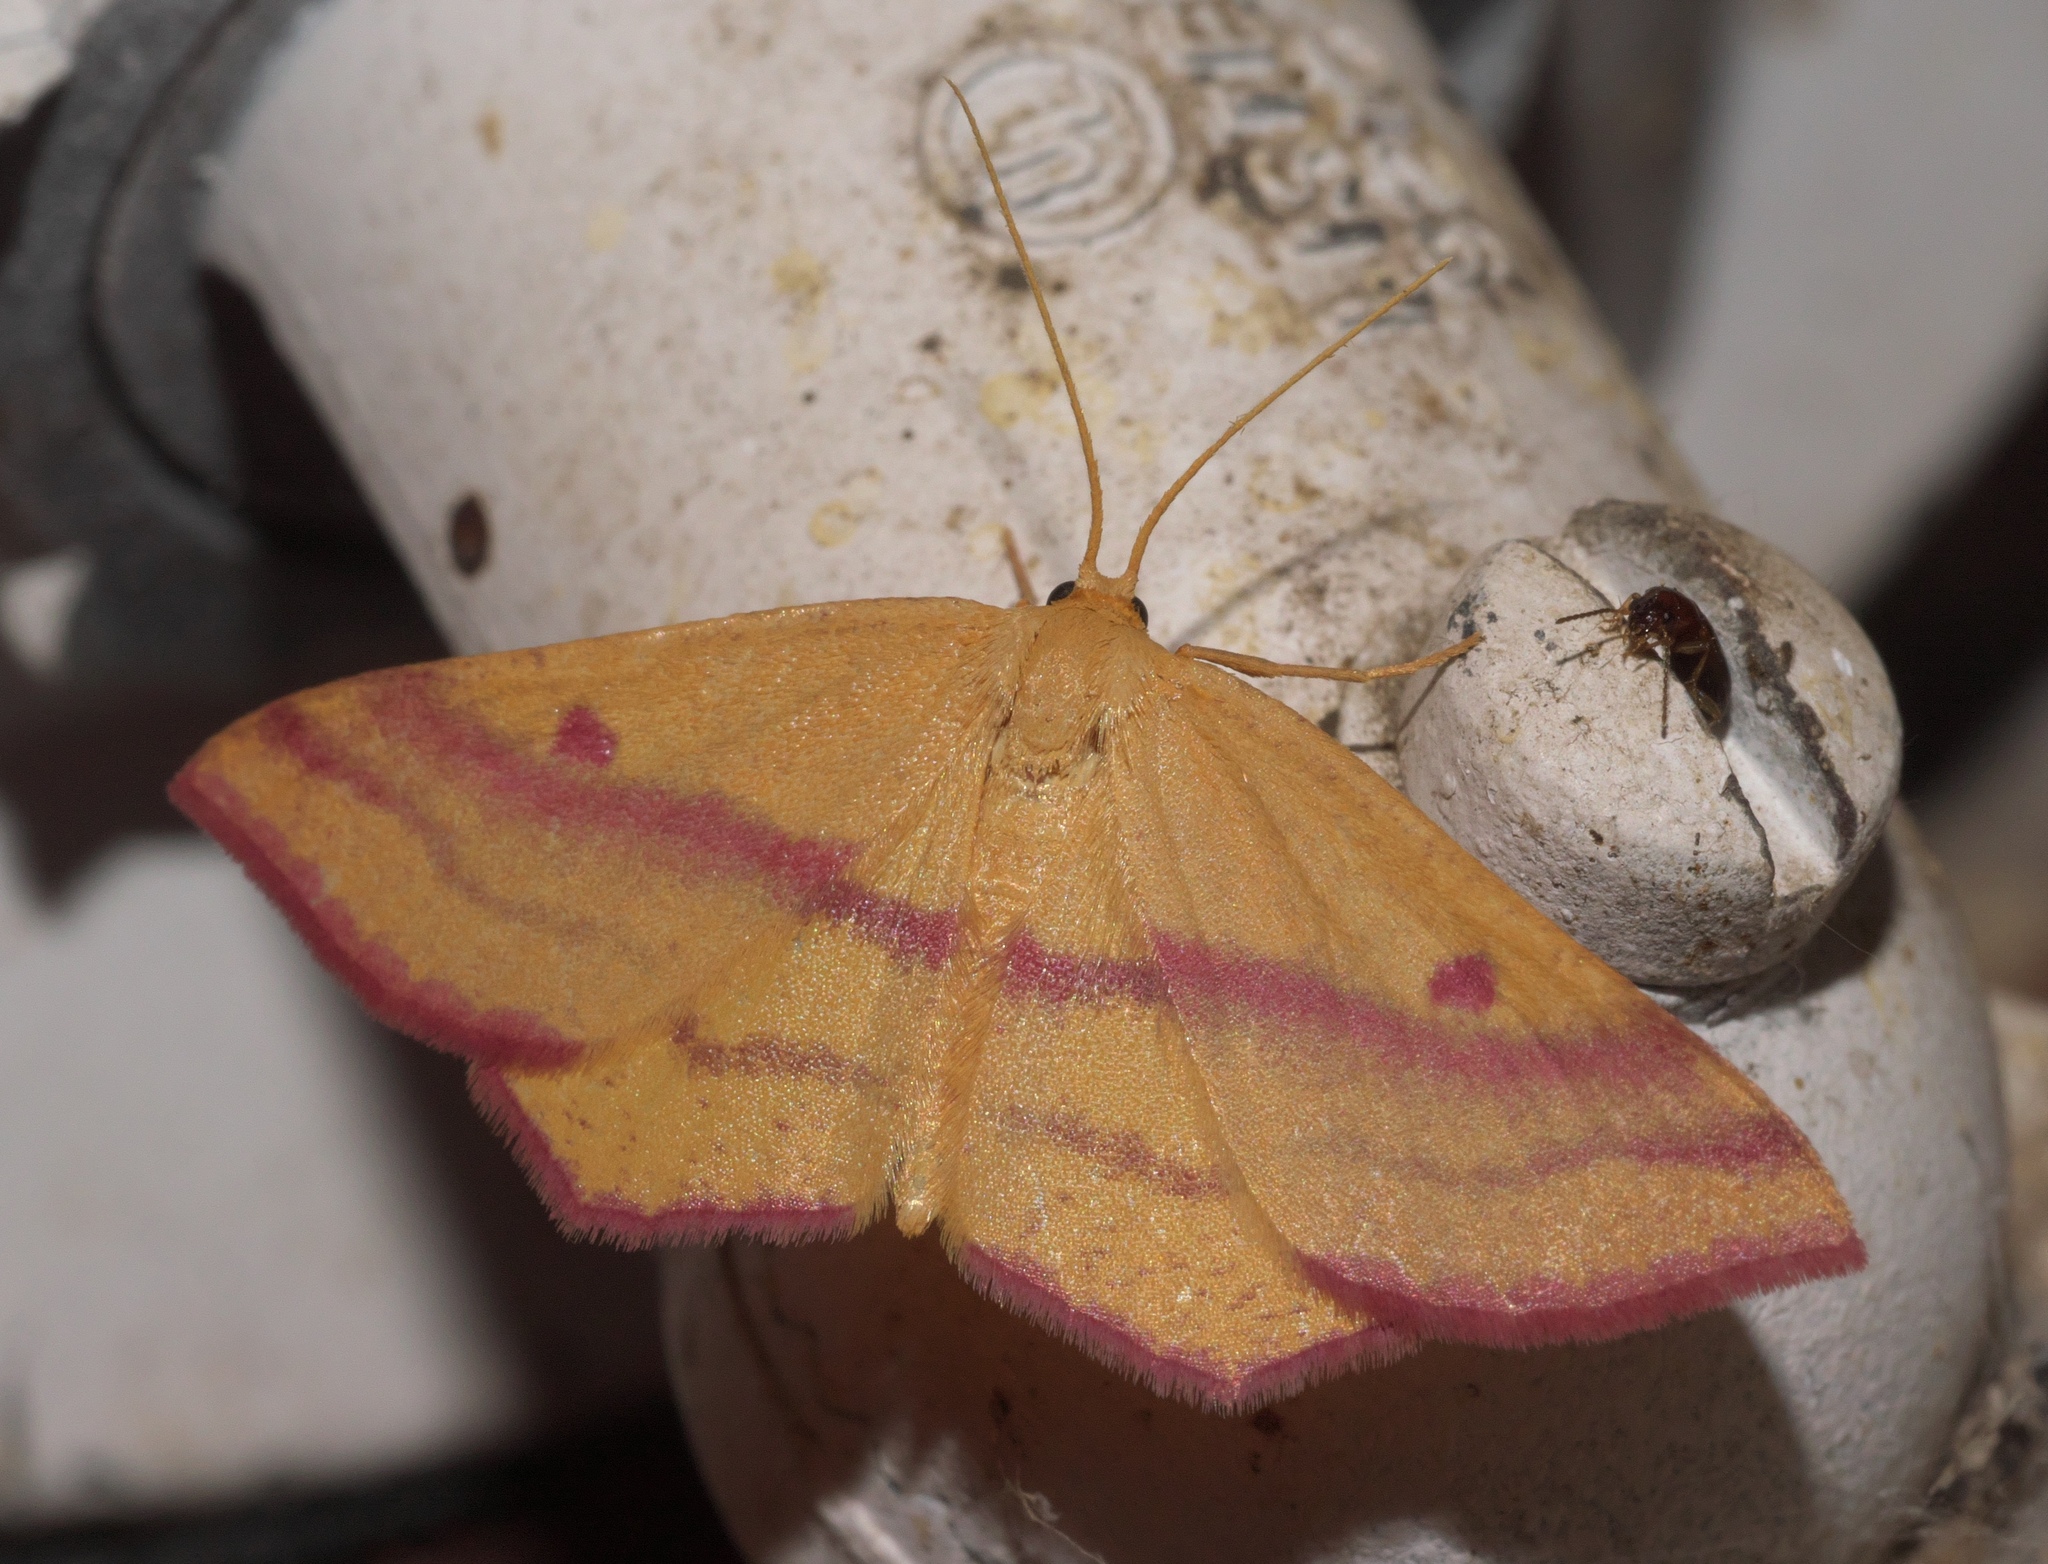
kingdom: Animalia
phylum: Arthropoda
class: Insecta
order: Lepidoptera
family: Geometridae
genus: Haematopis
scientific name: Haematopis grataria
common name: Chickweed geometer
